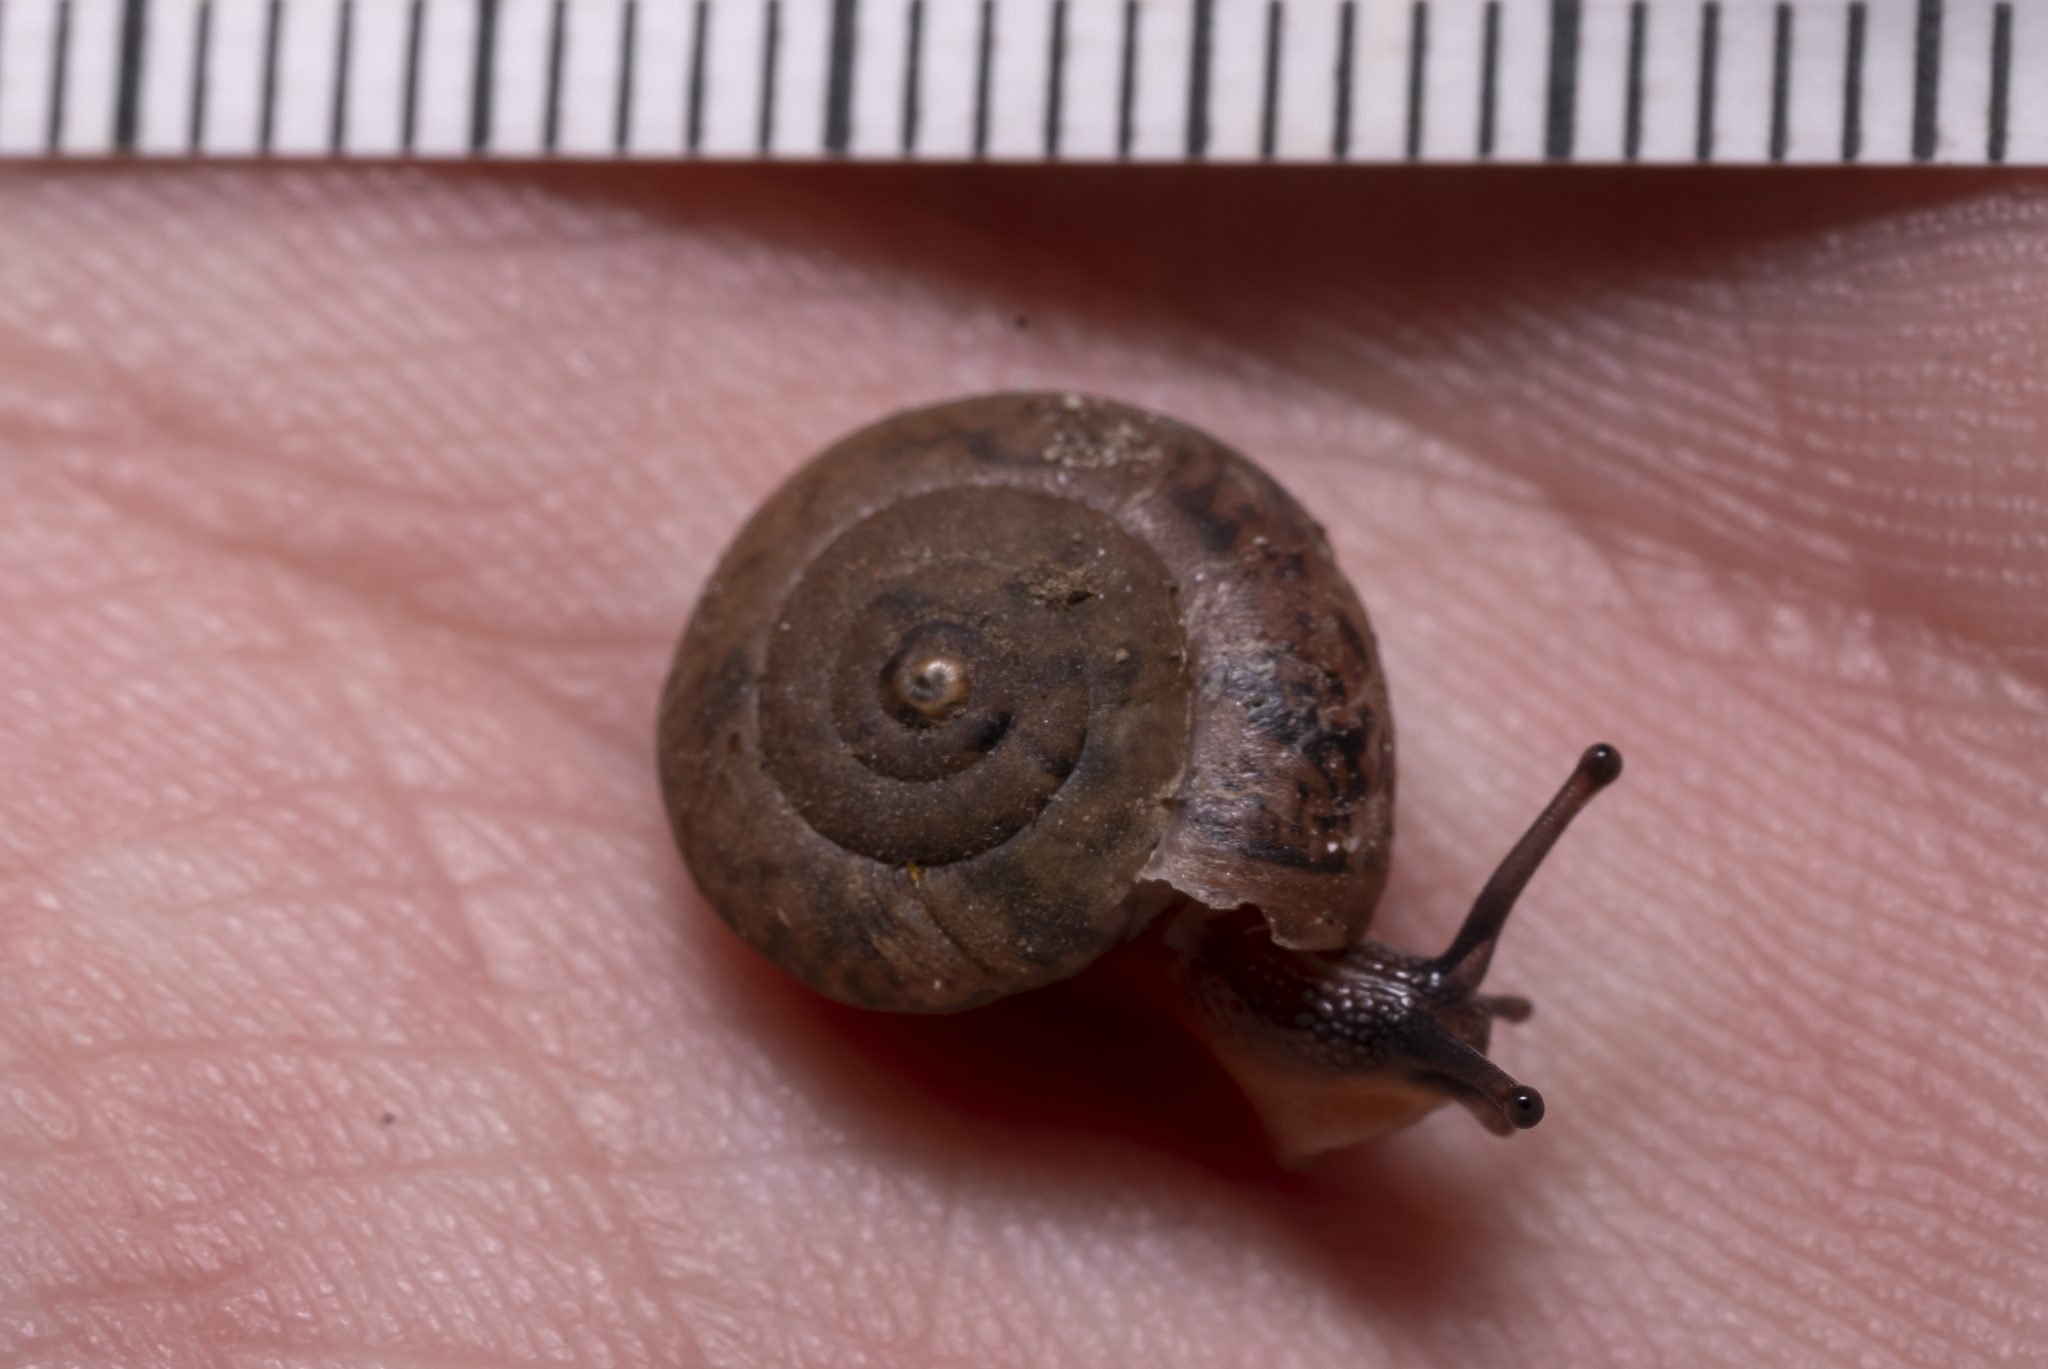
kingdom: Animalia
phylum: Mollusca
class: Gastropoda
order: Stylommatophora
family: Hygromiidae
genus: Monachoides
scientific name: Monachoides incarnatus
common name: Incarnate snail
